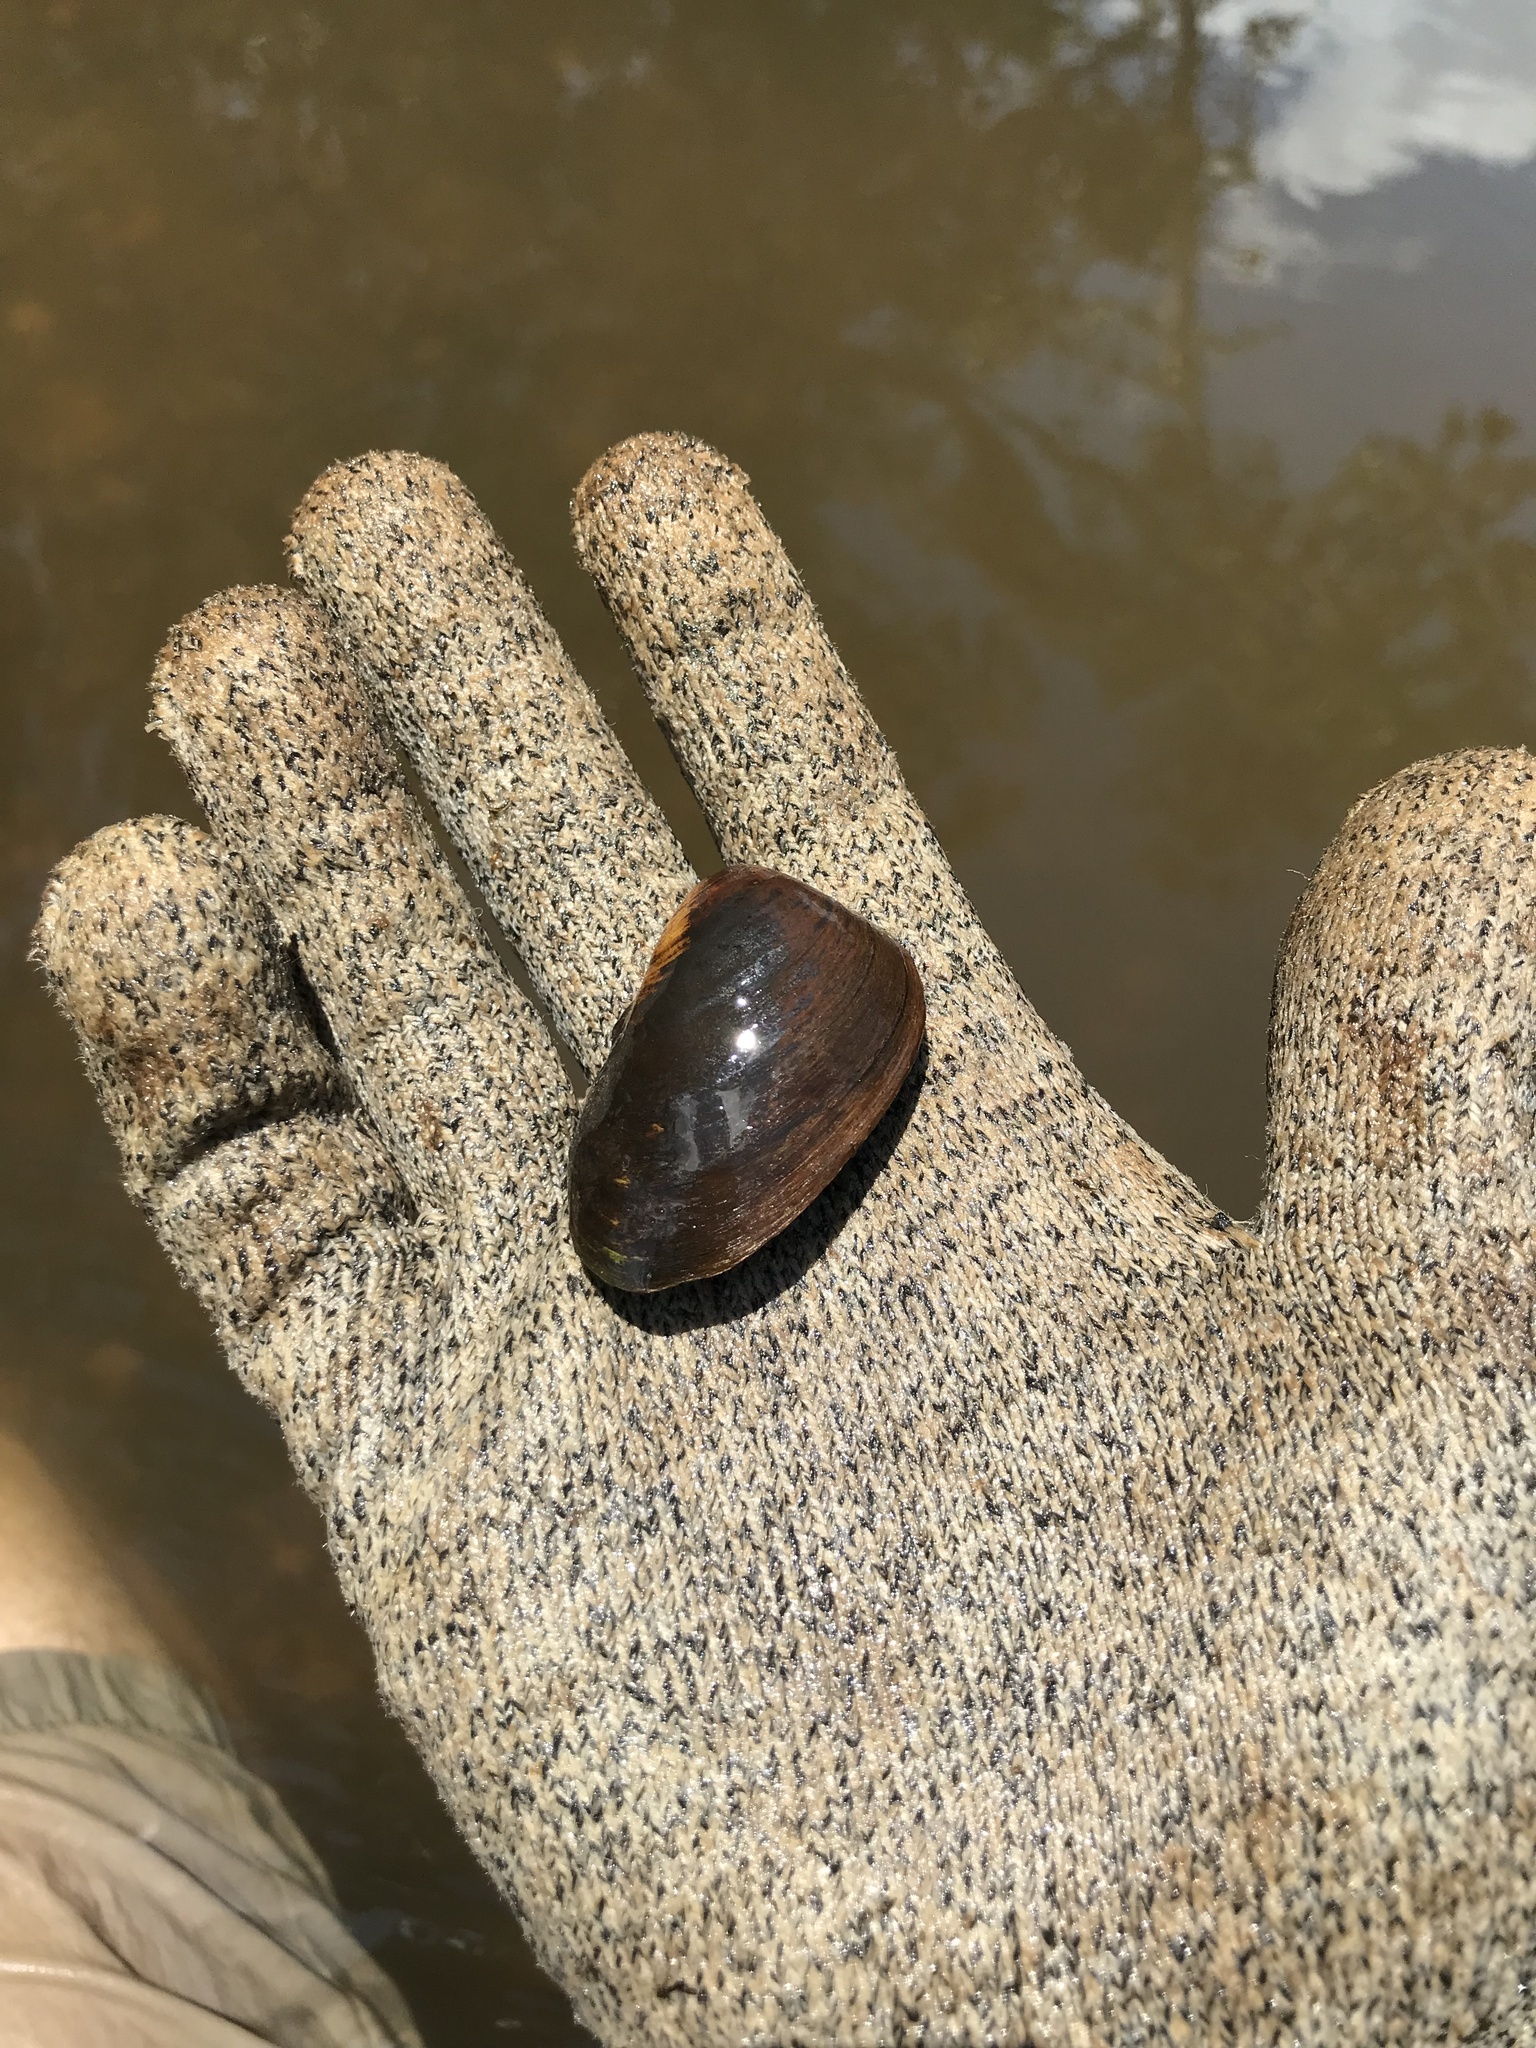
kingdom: Animalia
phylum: Mollusca
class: Bivalvia
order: Unionida
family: Unionidae
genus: Pleurobema
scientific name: Pleurobema decisum
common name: Southern clubshell
